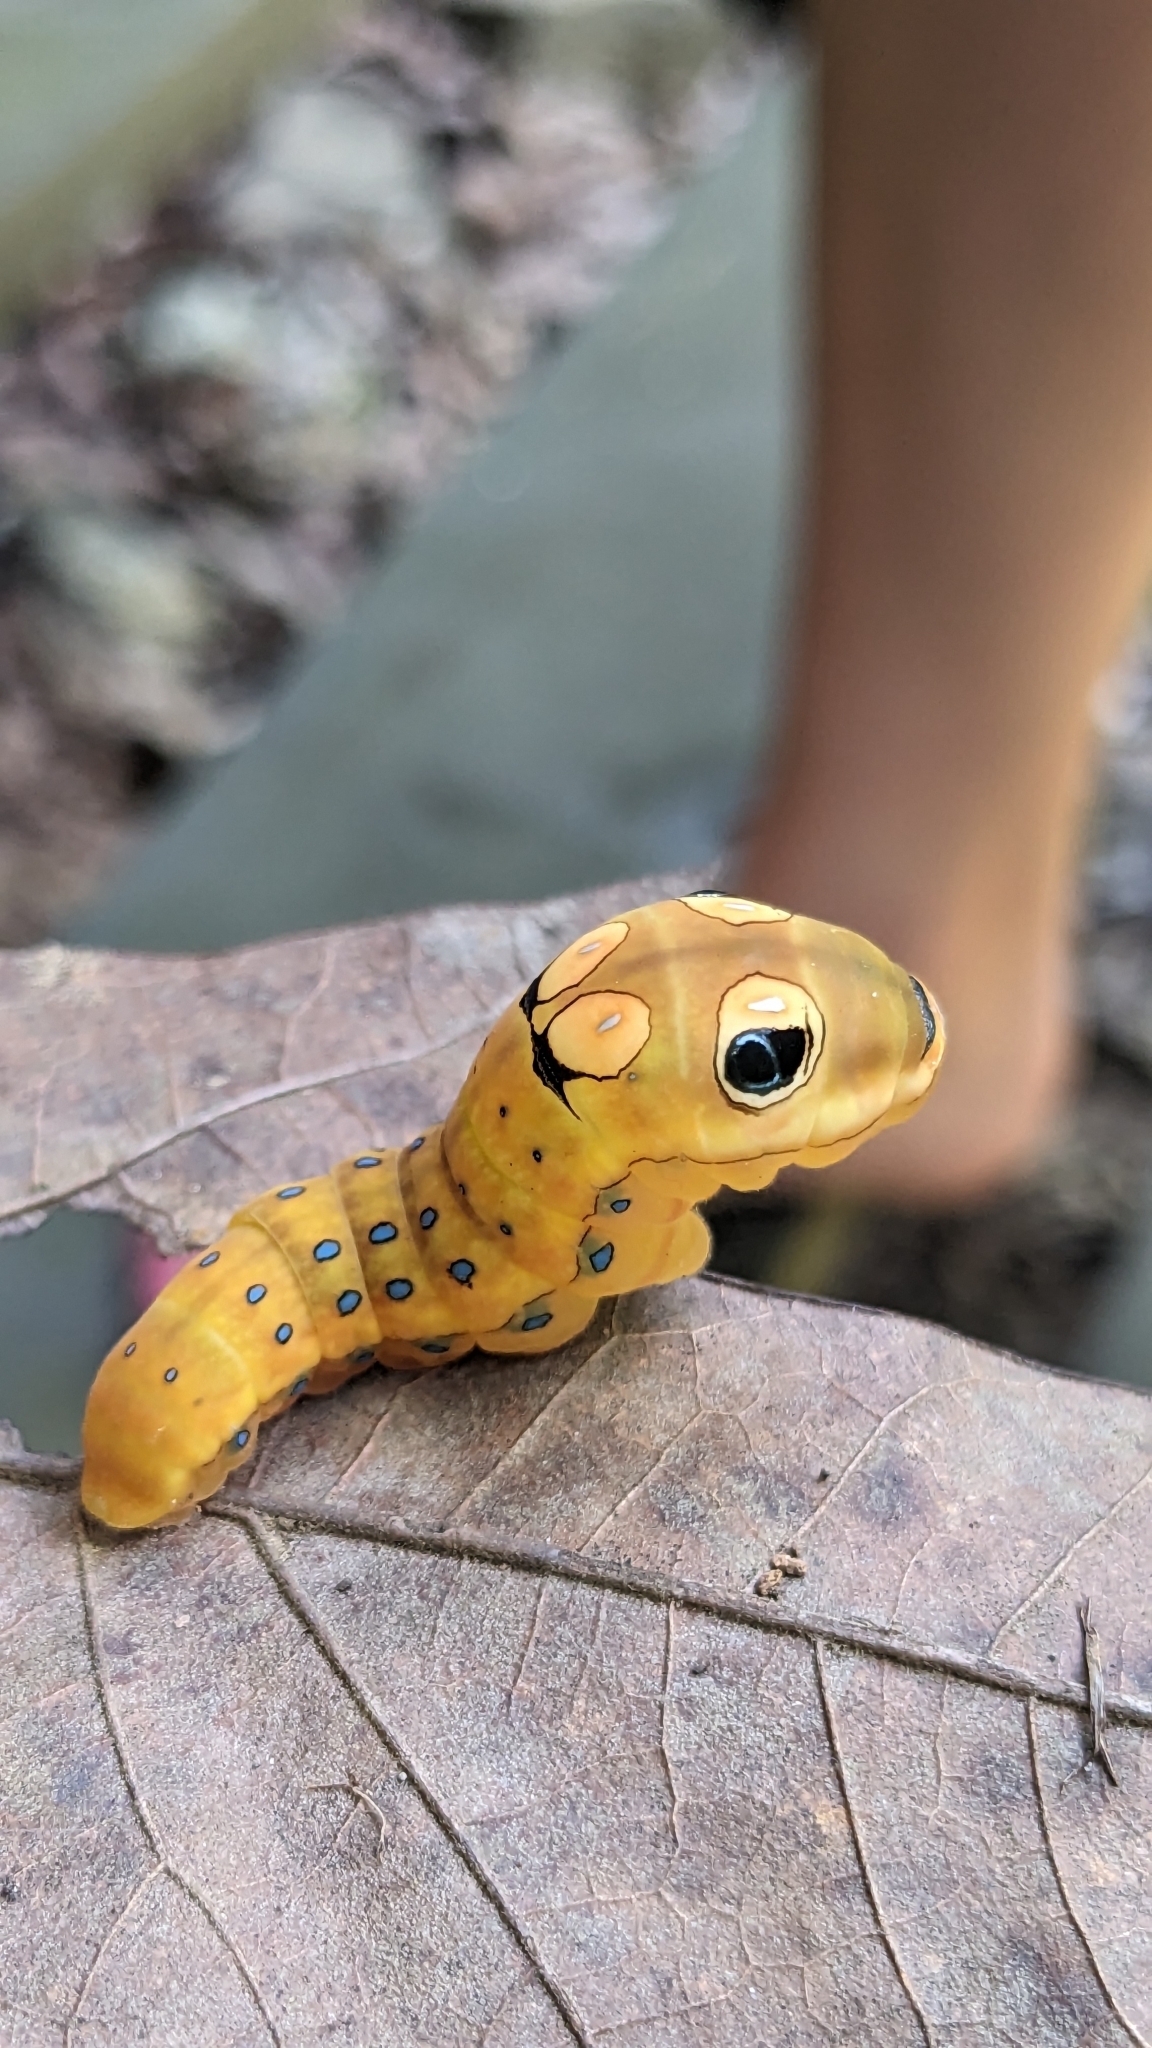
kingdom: Animalia
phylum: Arthropoda
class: Insecta
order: Lepidoptera
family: Papilionidae
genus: Papilio
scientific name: Papilio troilus
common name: Spicebush swallowtail
